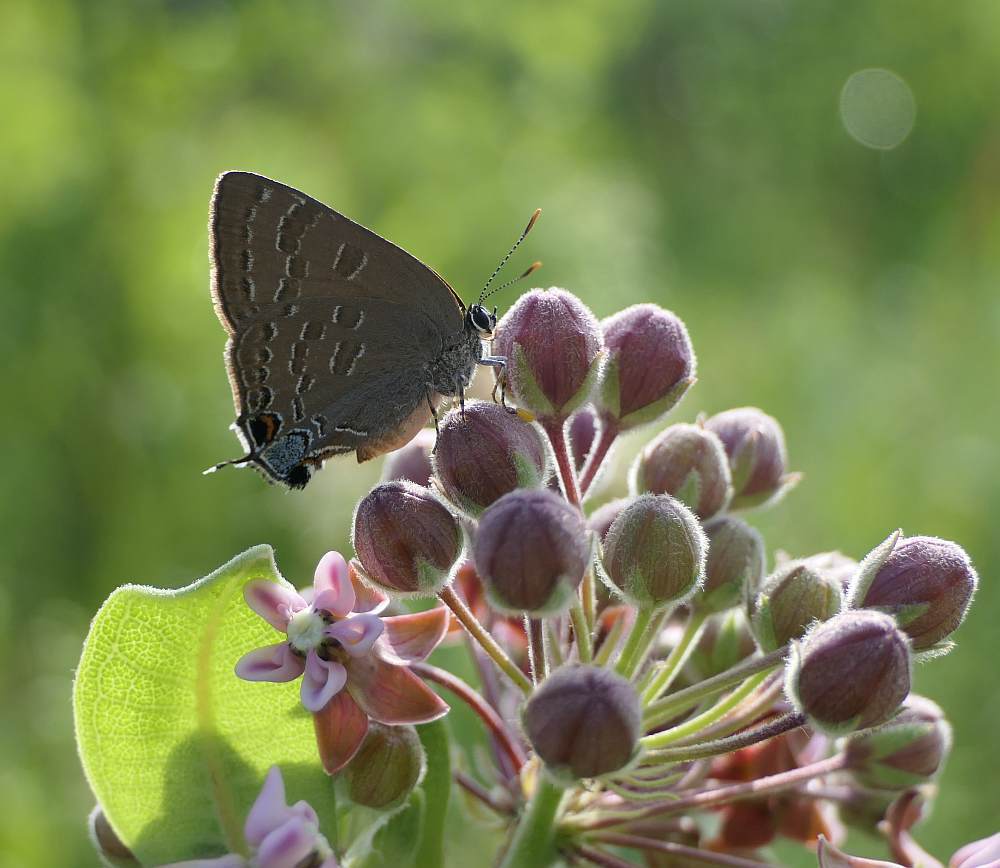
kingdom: Animalia
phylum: Arthropoda
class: Insecta
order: Lepidoptera
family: Lycaenidae
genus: Strymon
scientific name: Strymon caryaevorus
